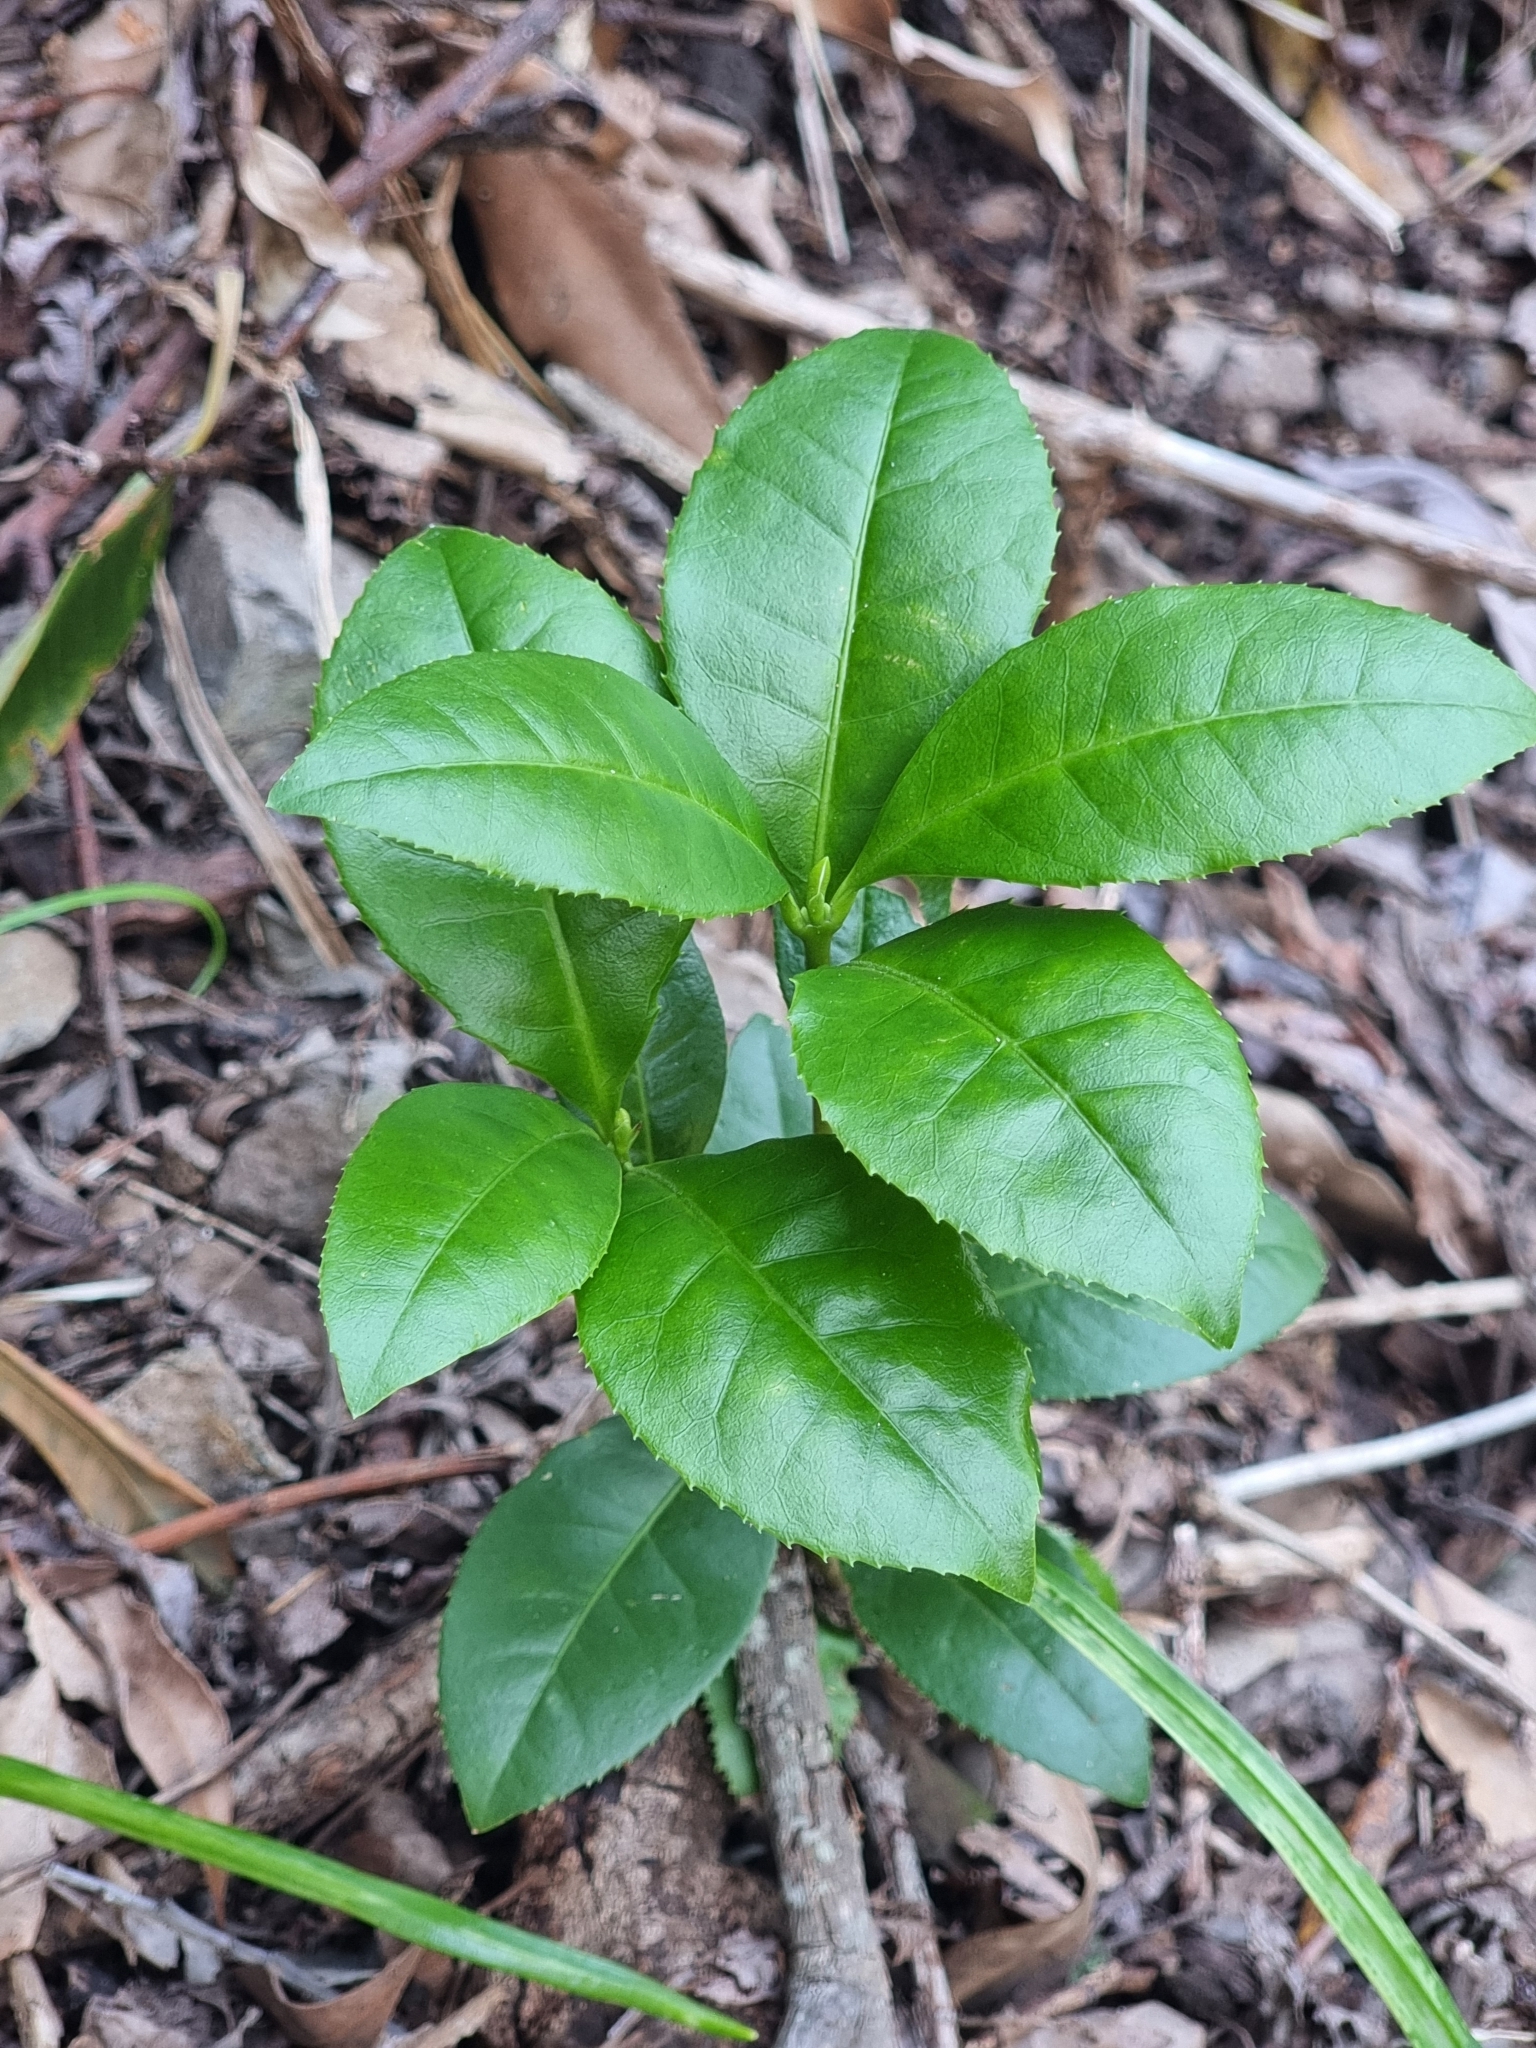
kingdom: Plantae
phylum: Tracheophyta
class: Magnoliopsida
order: Lamiales
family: Oleaceae
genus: Picconia
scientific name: Picconia excelsa
